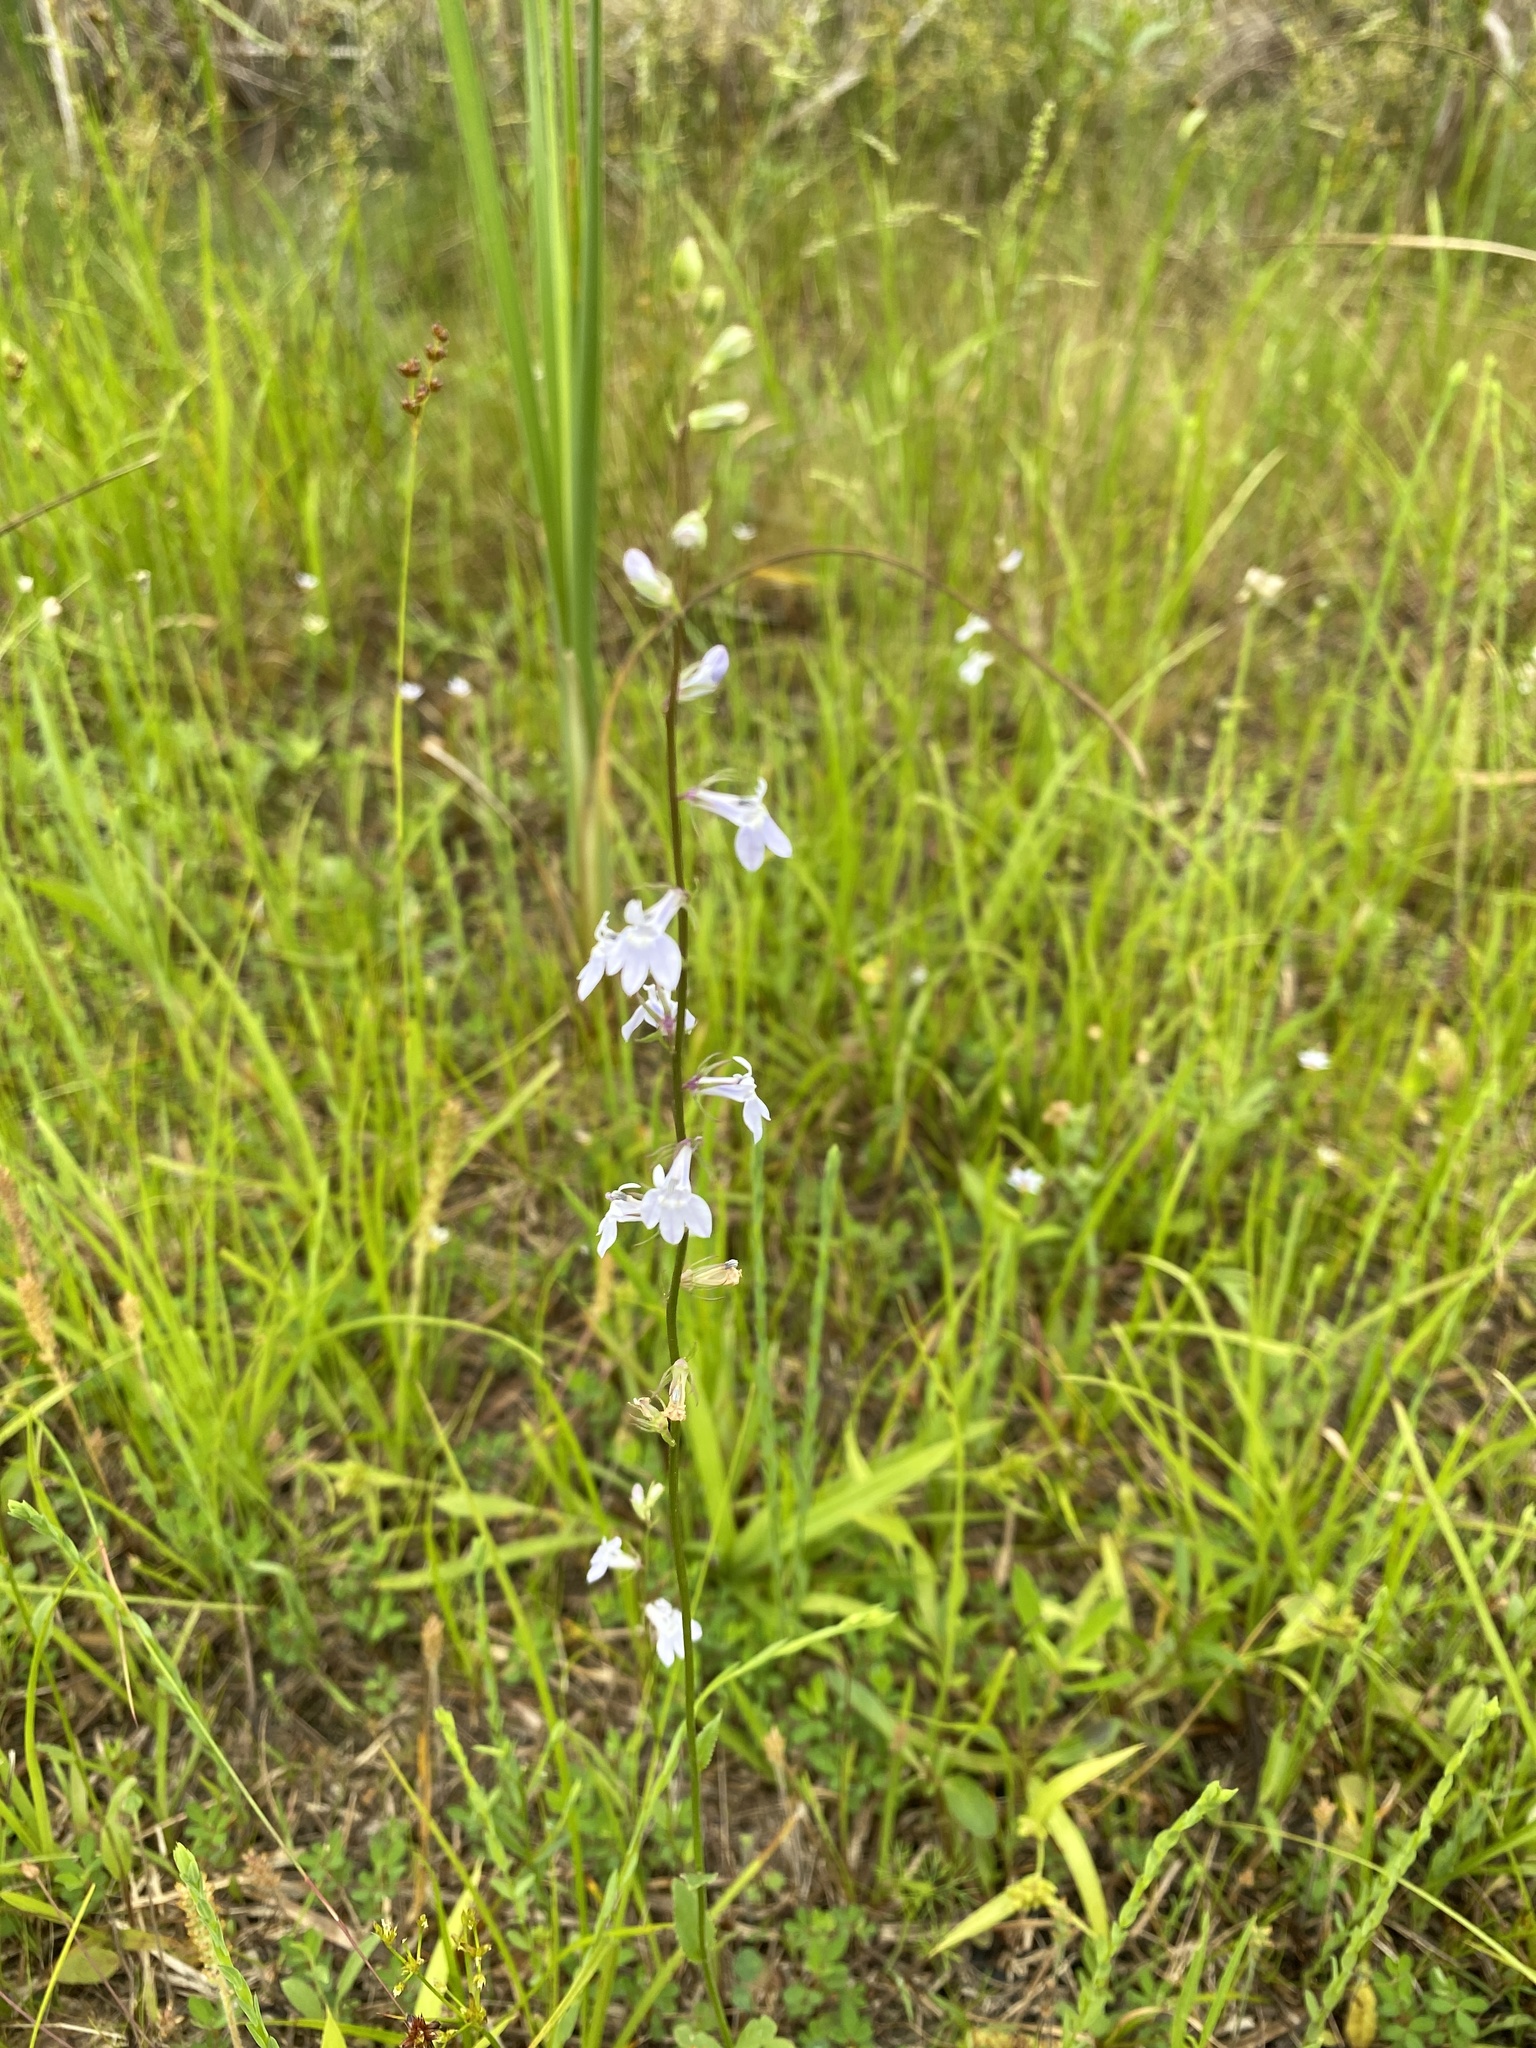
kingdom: Plantae
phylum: Tracheophyta
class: Magnoliopsida
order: Asterales
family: Campanulaceae
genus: Lobelia
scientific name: Lobelia appendiculata
